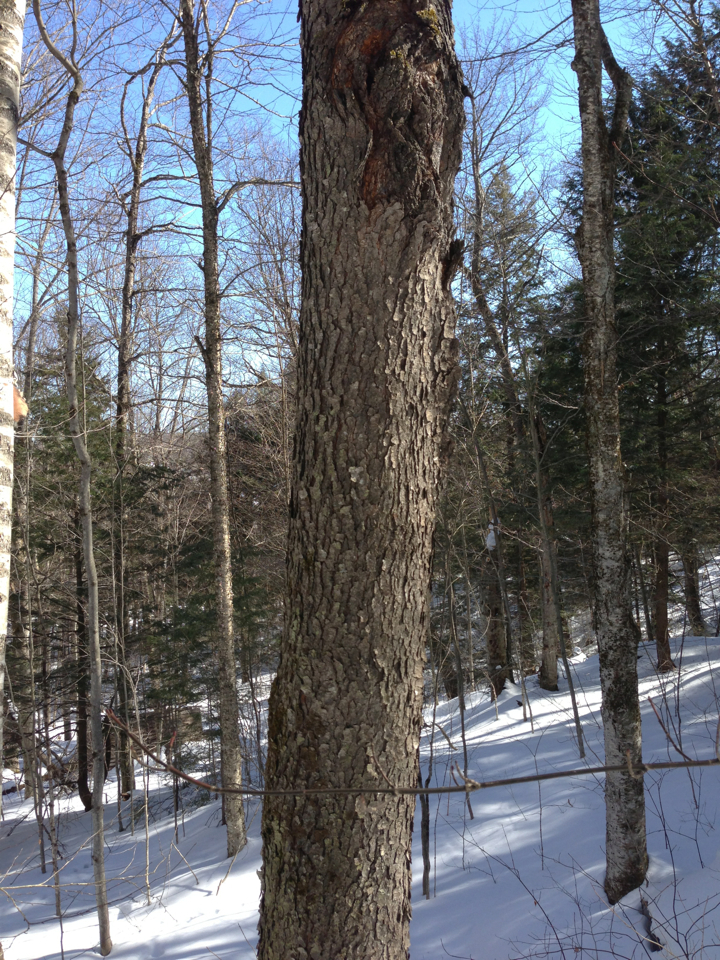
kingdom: Plantae
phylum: Tracheophyta
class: Magnoliopsida
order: Rosales
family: Rosaceae
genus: Prunus
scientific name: Prunus serotina
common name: Black cherry
